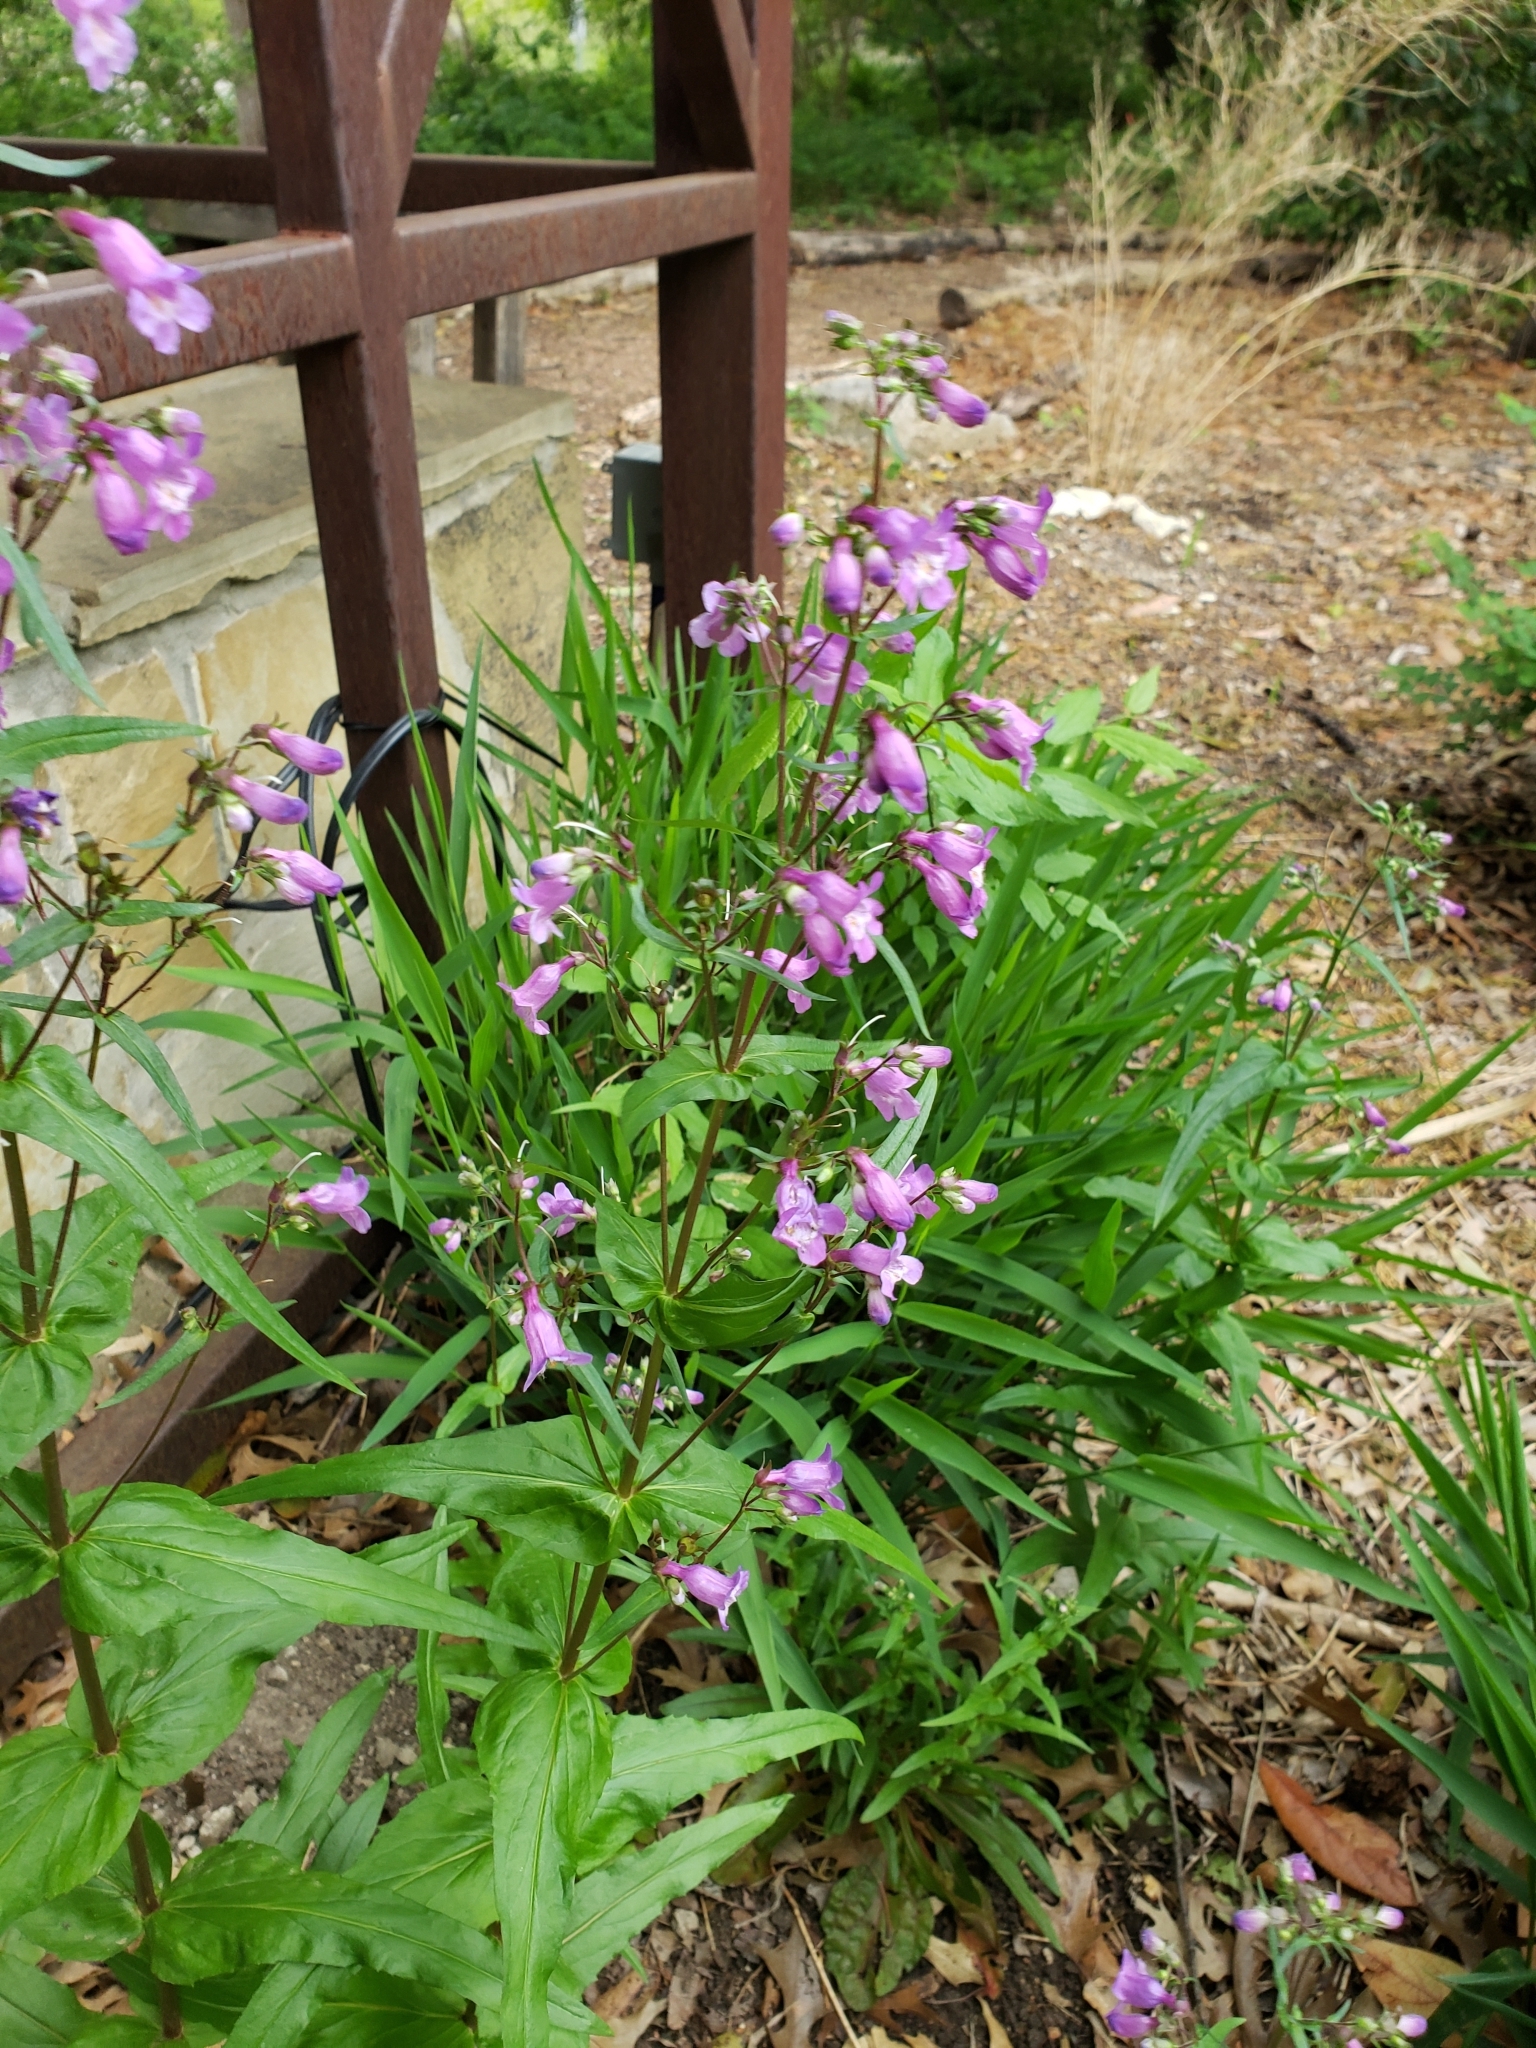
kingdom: Plantae
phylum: Tracheophyta
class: Magnoliopsida
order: Lamiales
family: Plantaginaceae
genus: Penstemon
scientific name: Penstemon tenuis
